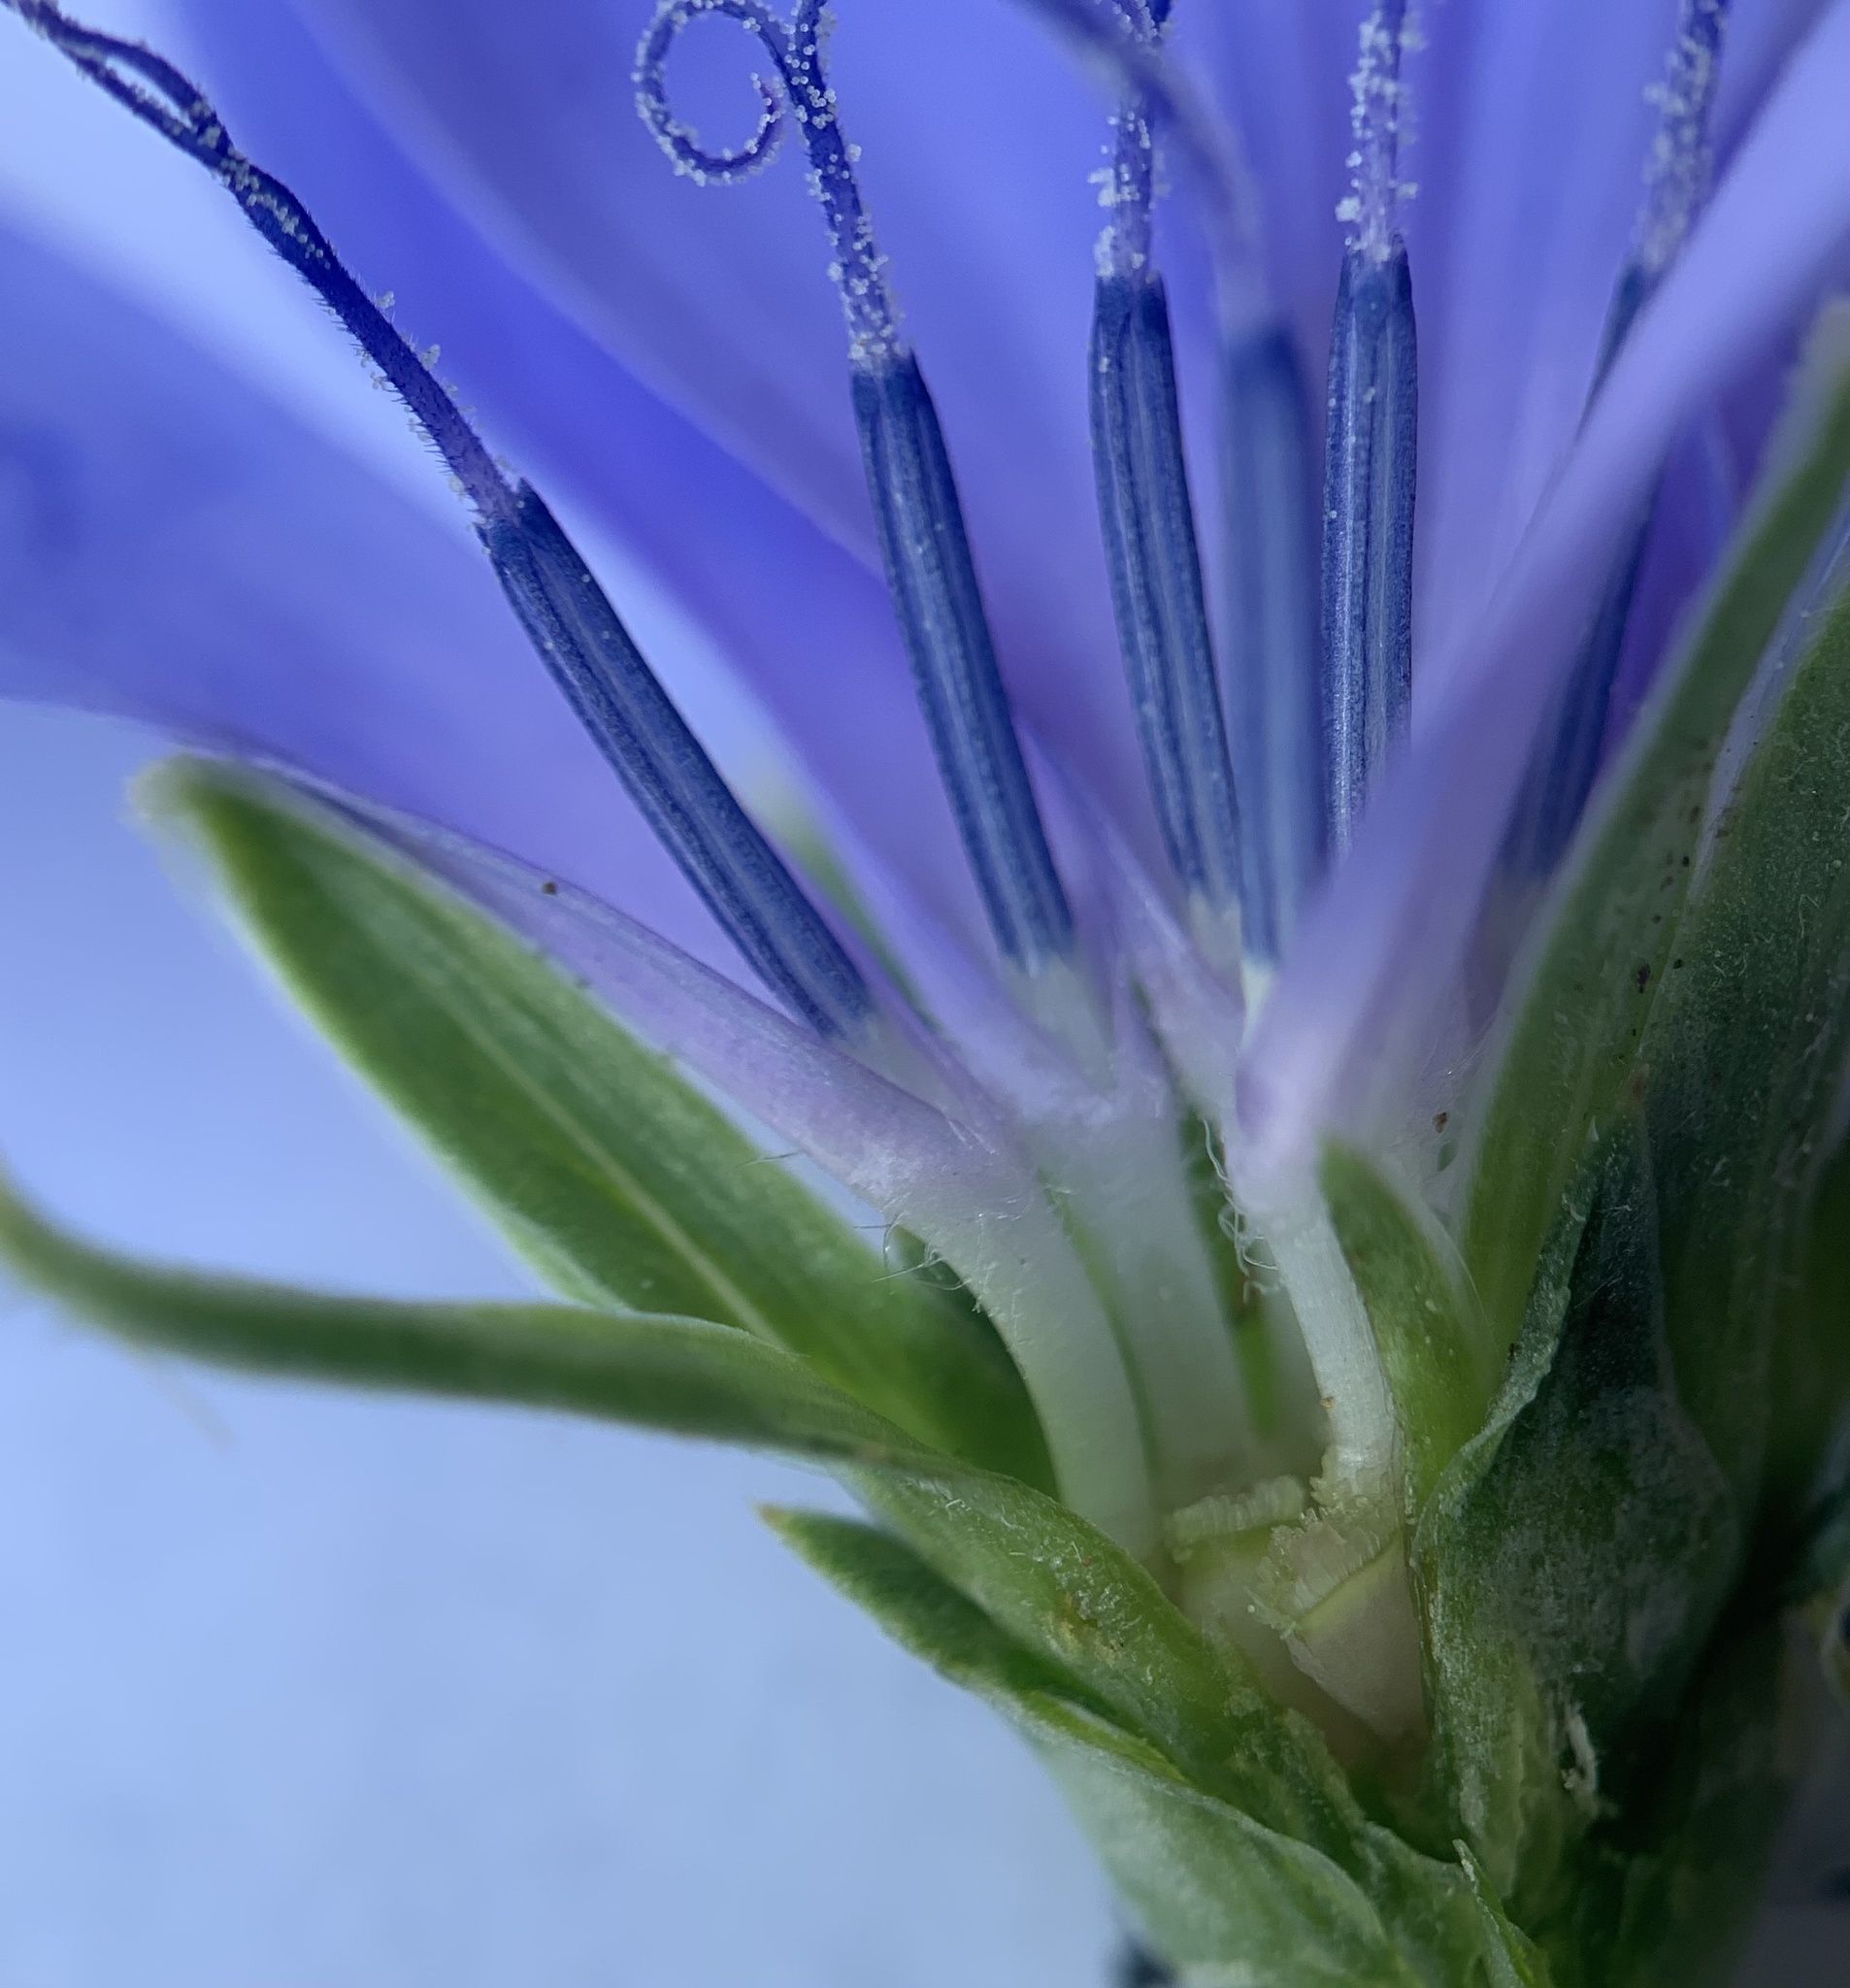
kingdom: Plantae
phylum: Tracheophyta
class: Magnoliopsida
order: Asterales
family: Asteraceae
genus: Cichorium
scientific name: Cichorium intybus
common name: Chicory
